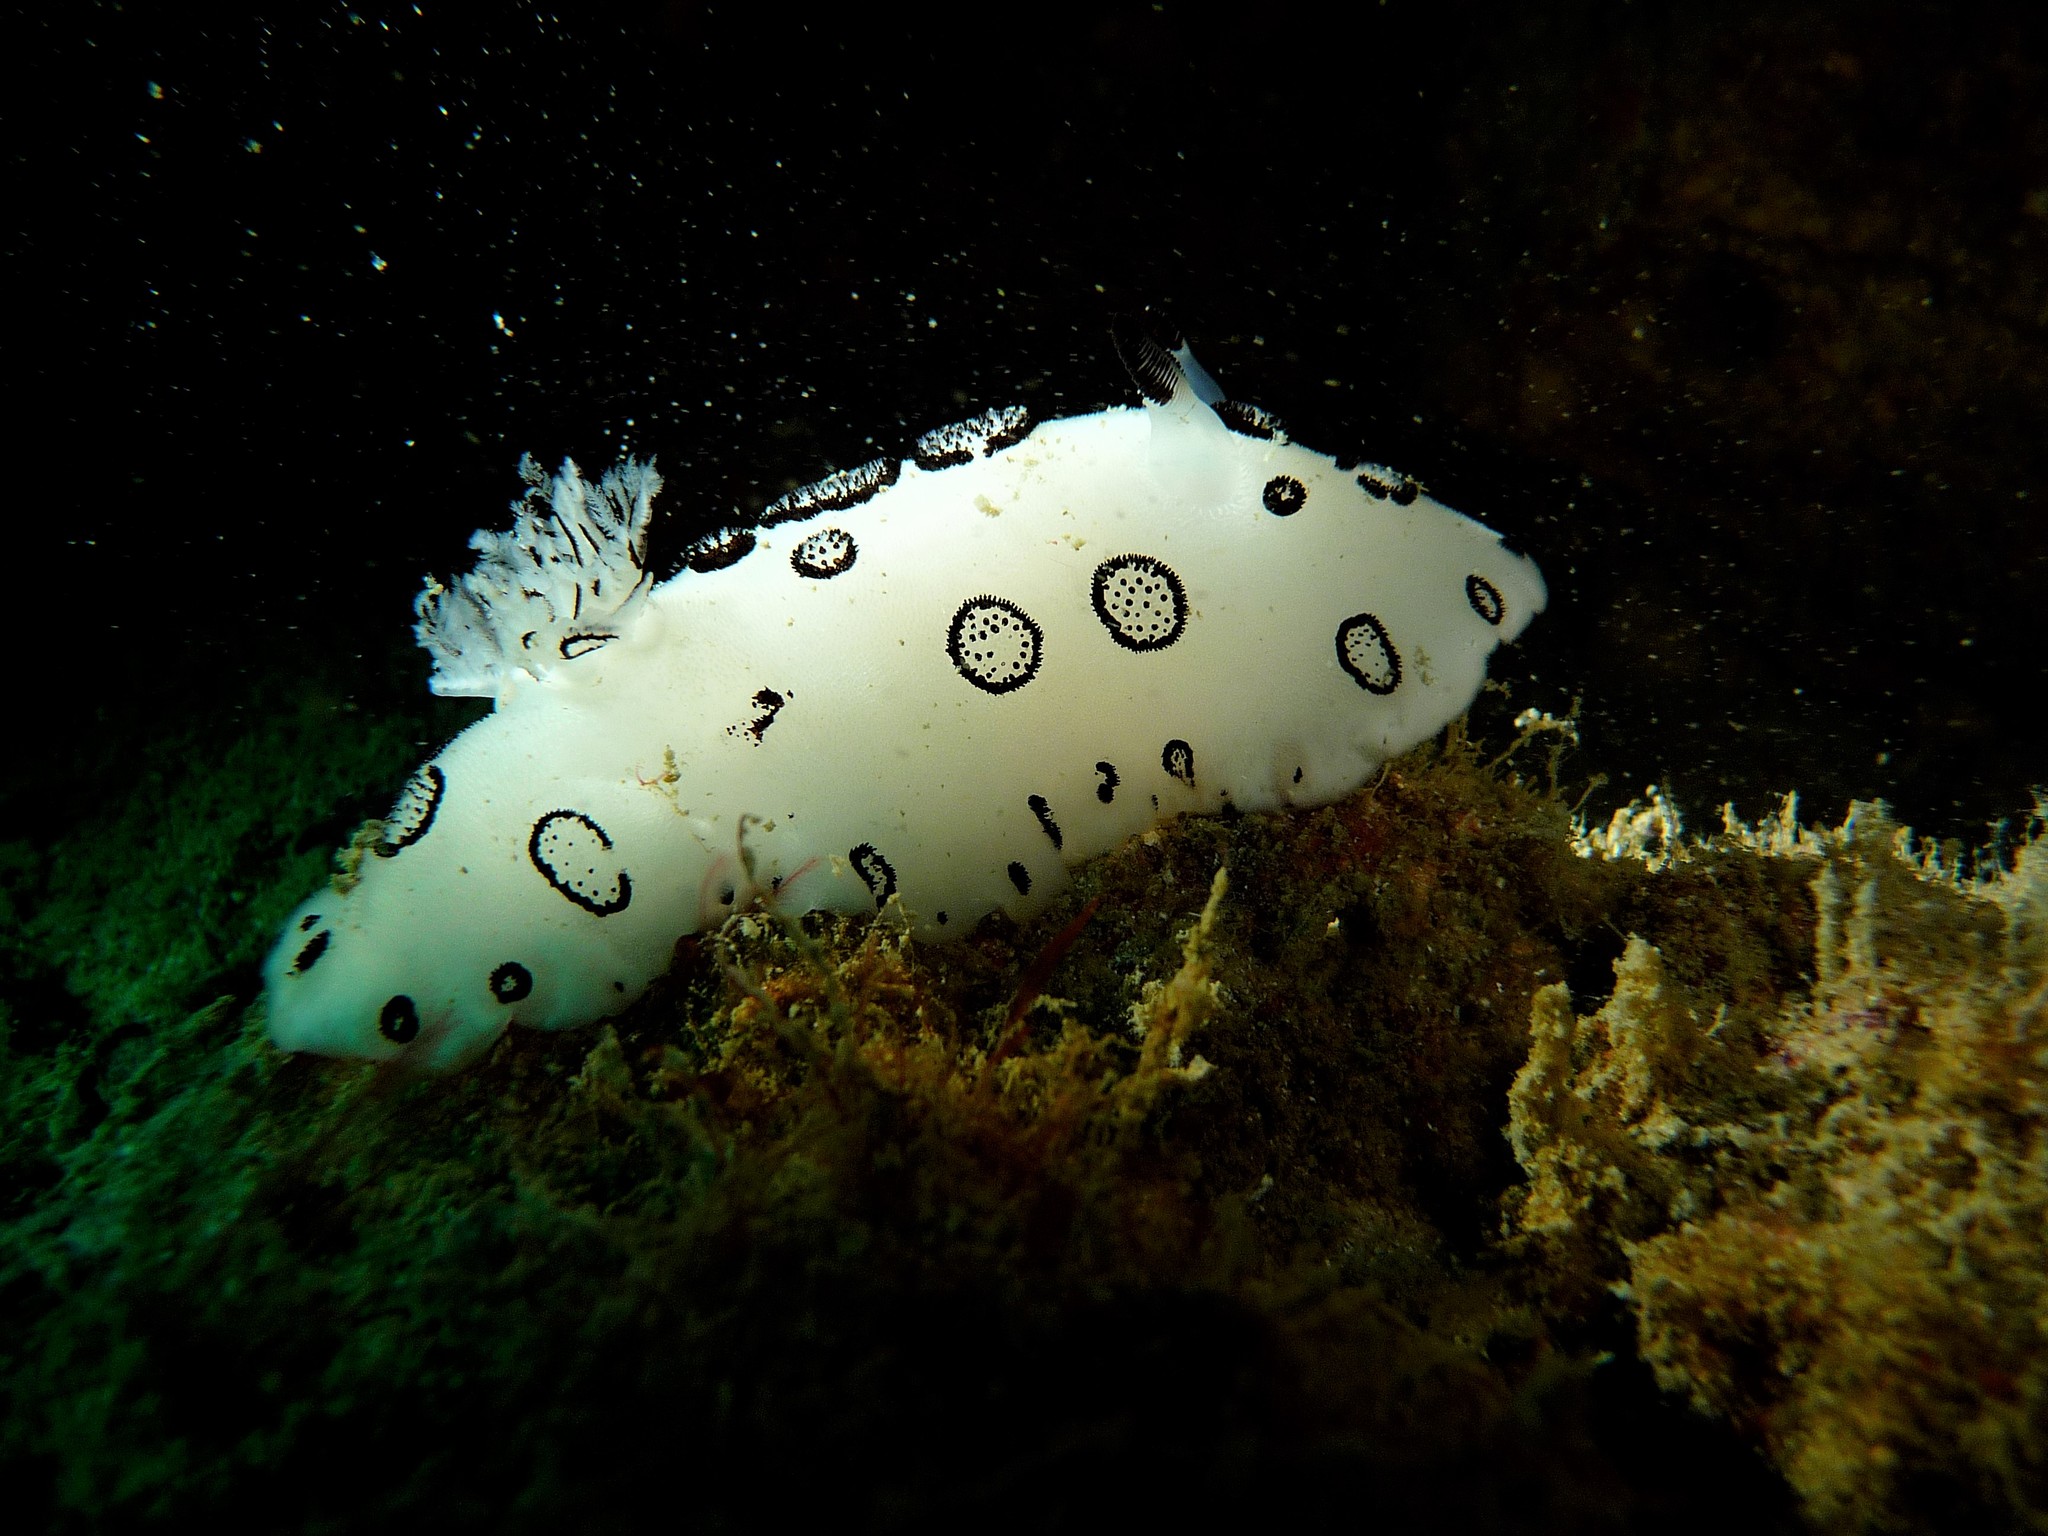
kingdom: Animalia
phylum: Mollusca
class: Gastropoda
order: Nudibranchia
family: Discodorididae
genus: Jorunna
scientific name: Jorunna funebris
